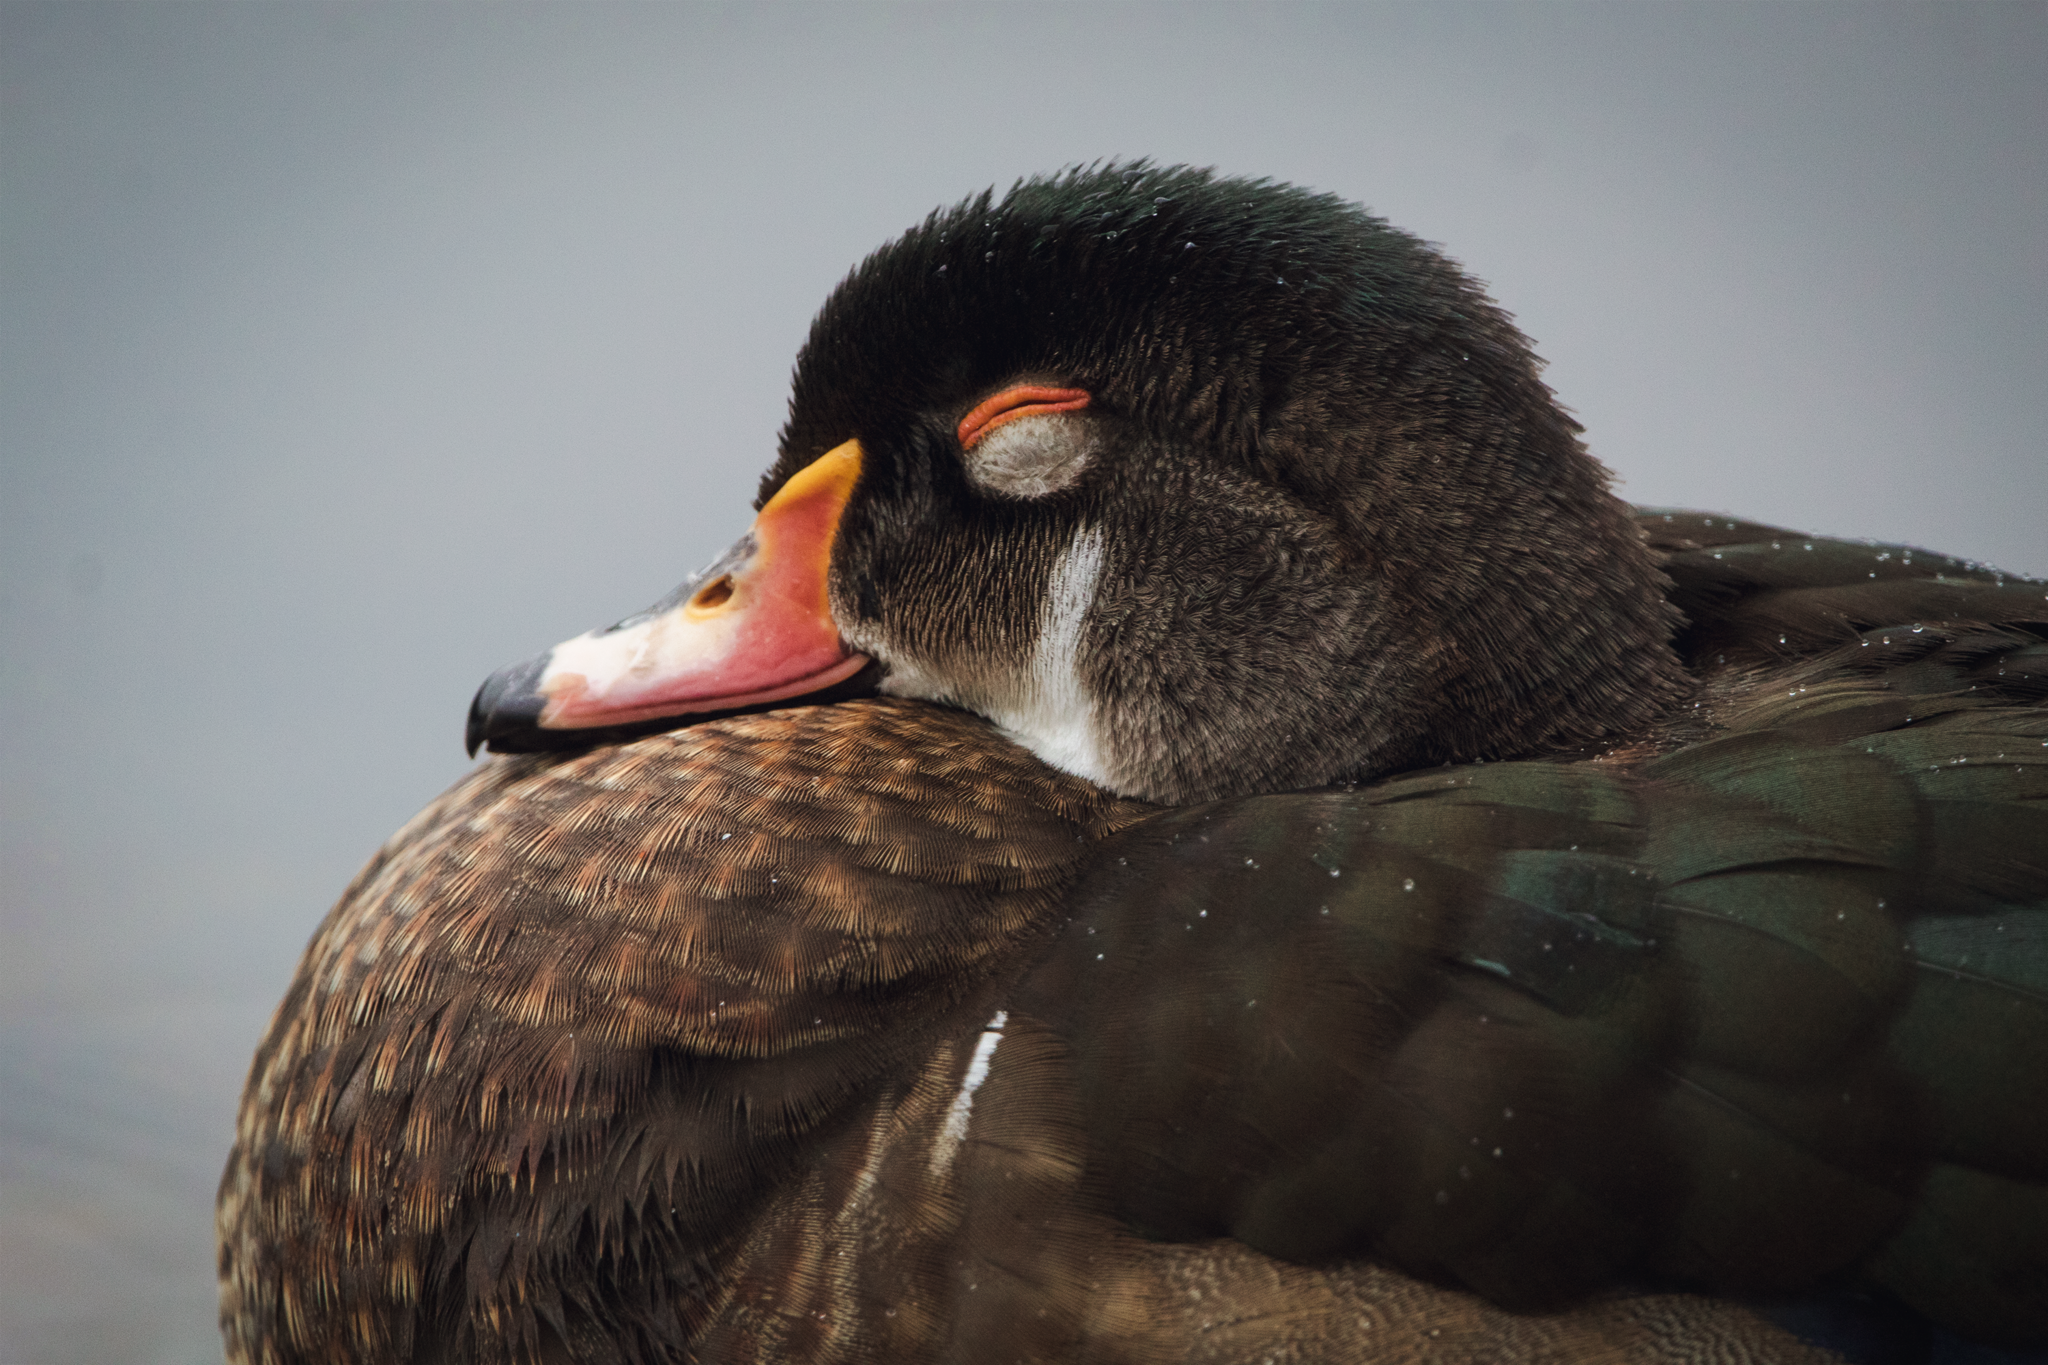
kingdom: Animalia
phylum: Chordata
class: Aves
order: Anseriformes
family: Anatidae
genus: Aix
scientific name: Aix sponsa
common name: Wood duck
